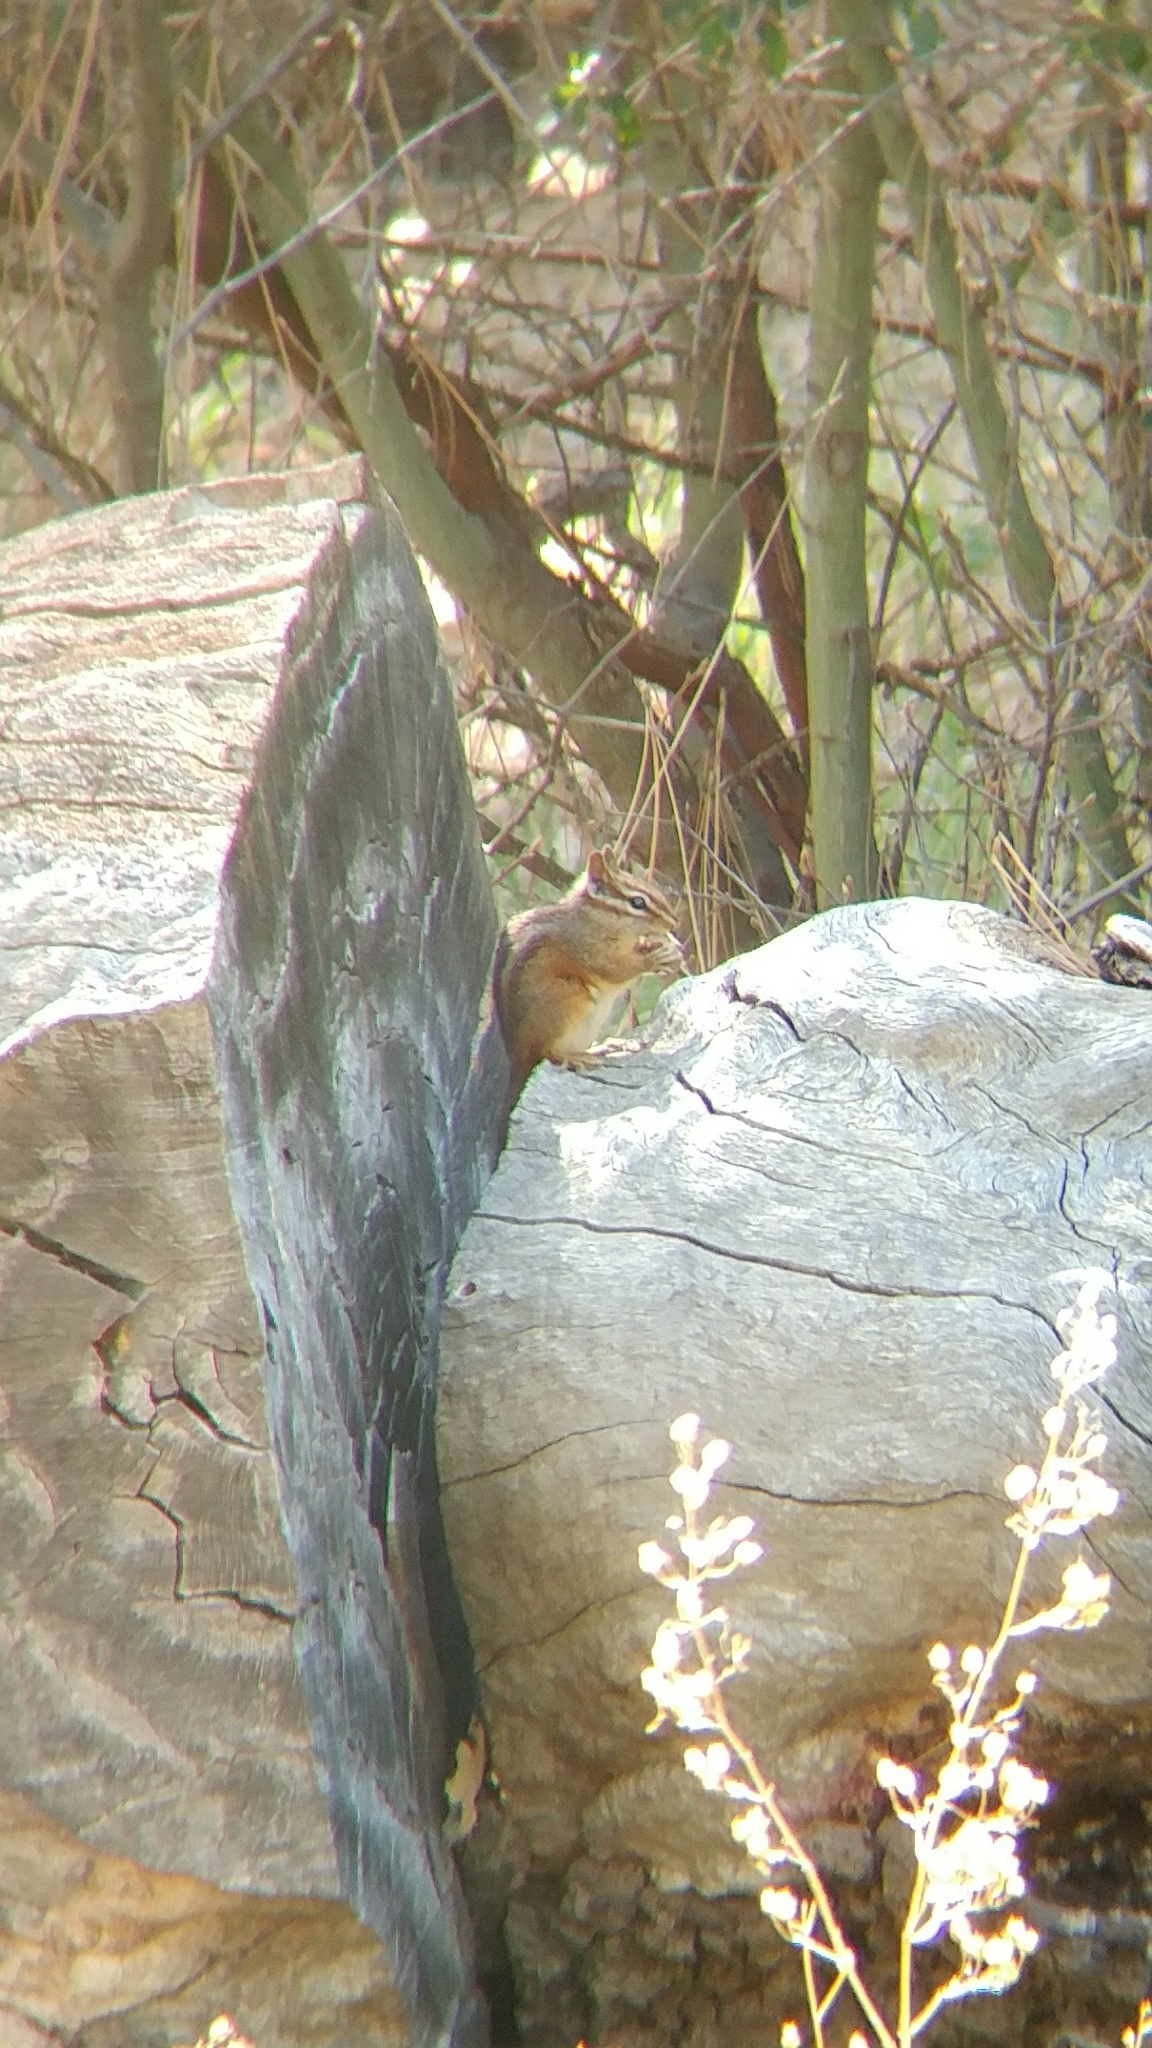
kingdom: Animalia
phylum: Chordata
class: Mammalia
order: Rodentia
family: Sciuridae
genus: Tamias
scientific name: Tamias merriami
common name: Merriam's chipmunk
